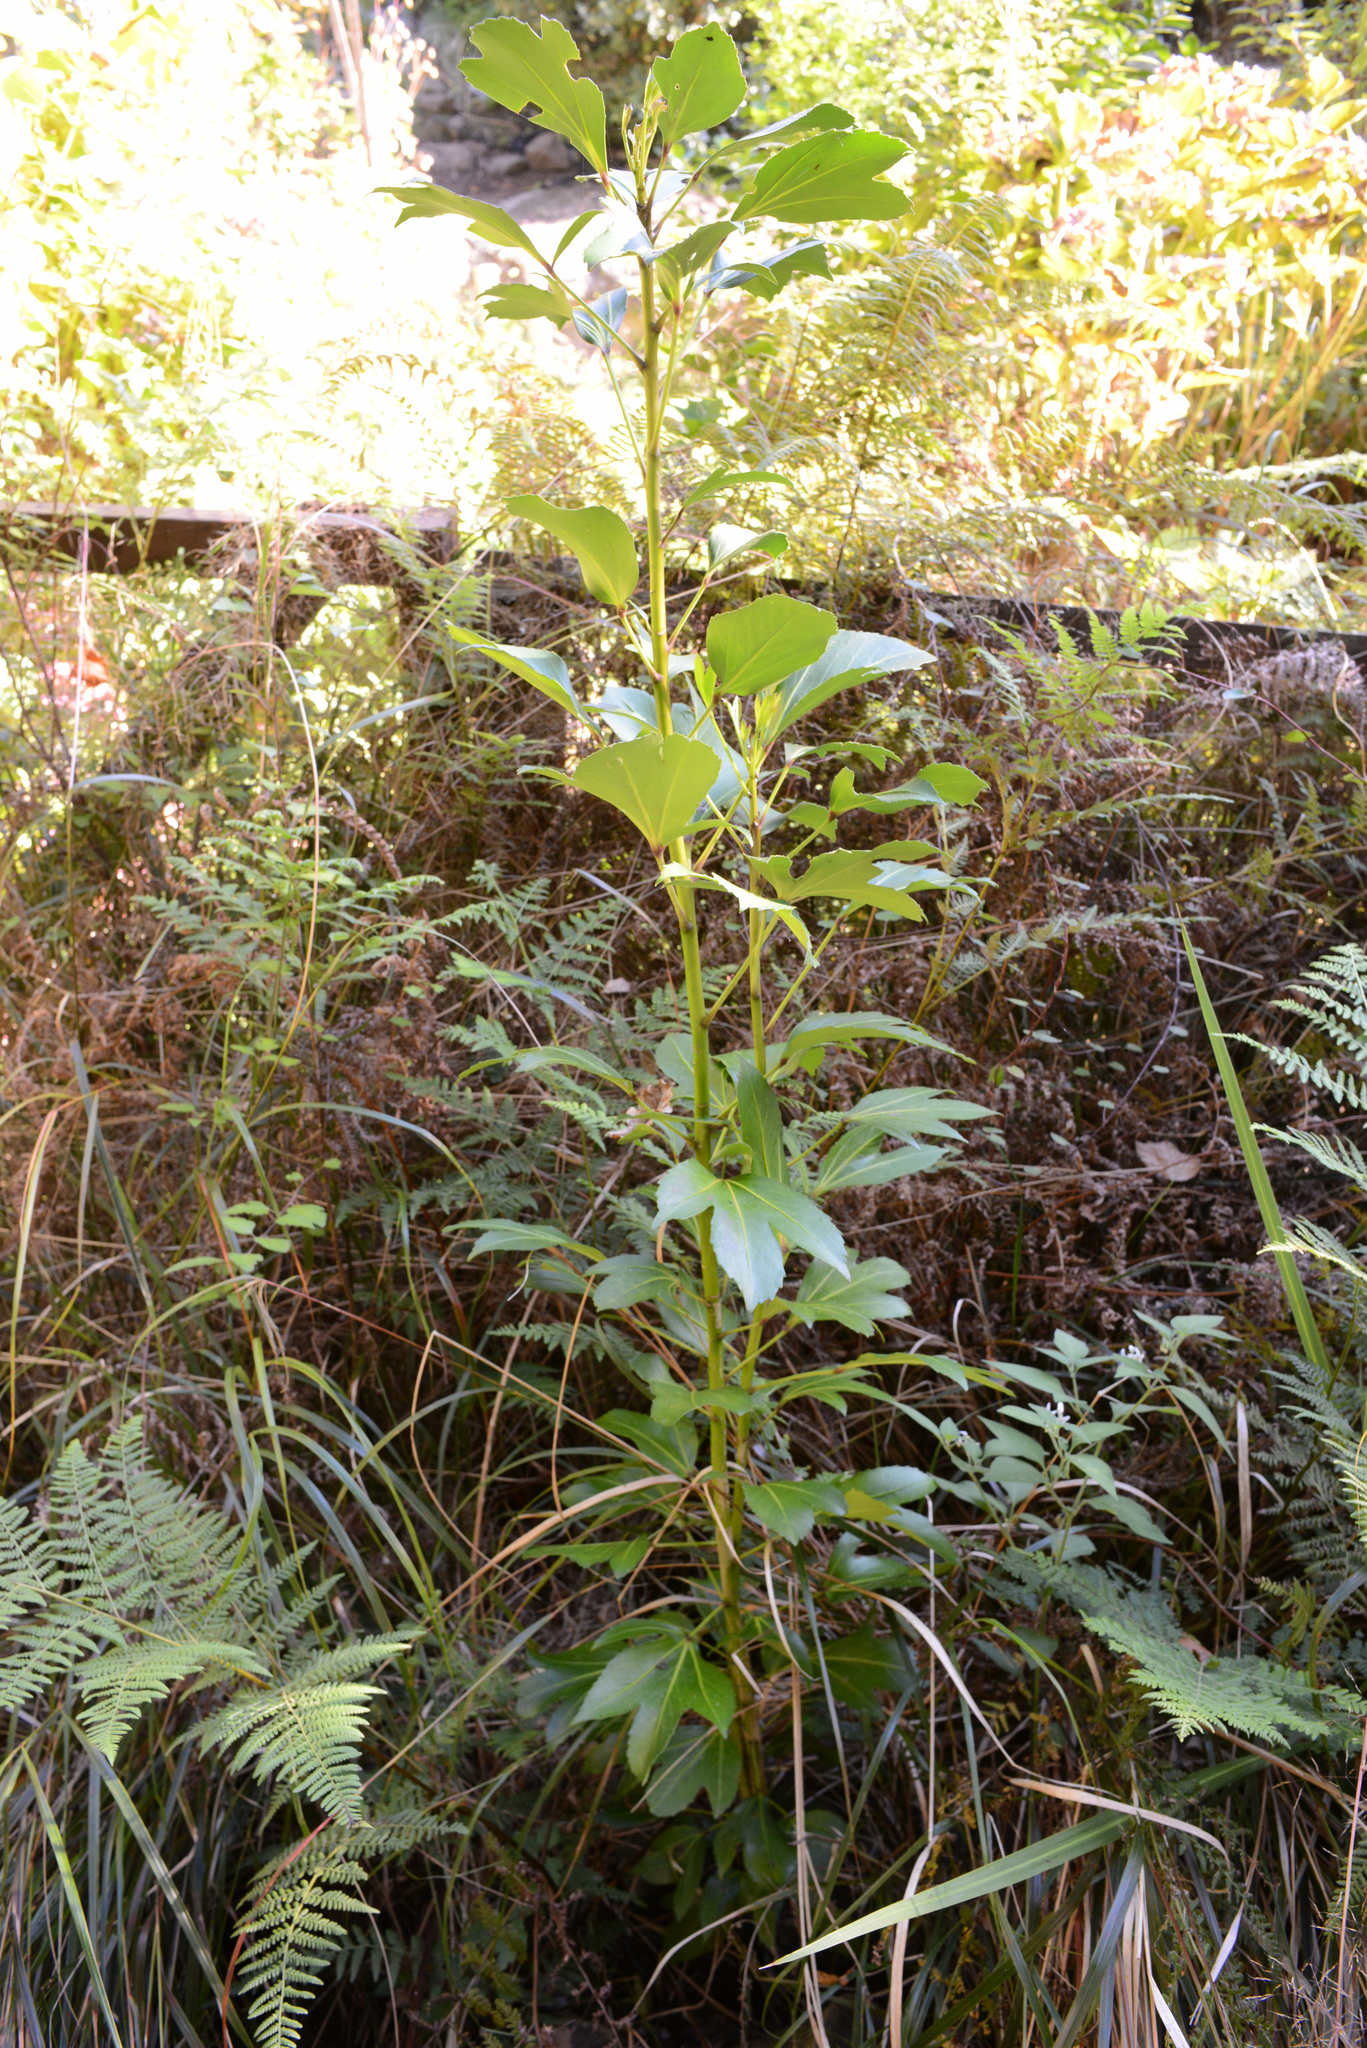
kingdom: Plantae
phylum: Tracheophyta
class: Magnoliopsida
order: Apiales
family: Araliaceae
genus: Pseudopanax
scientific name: Pseudopanax
